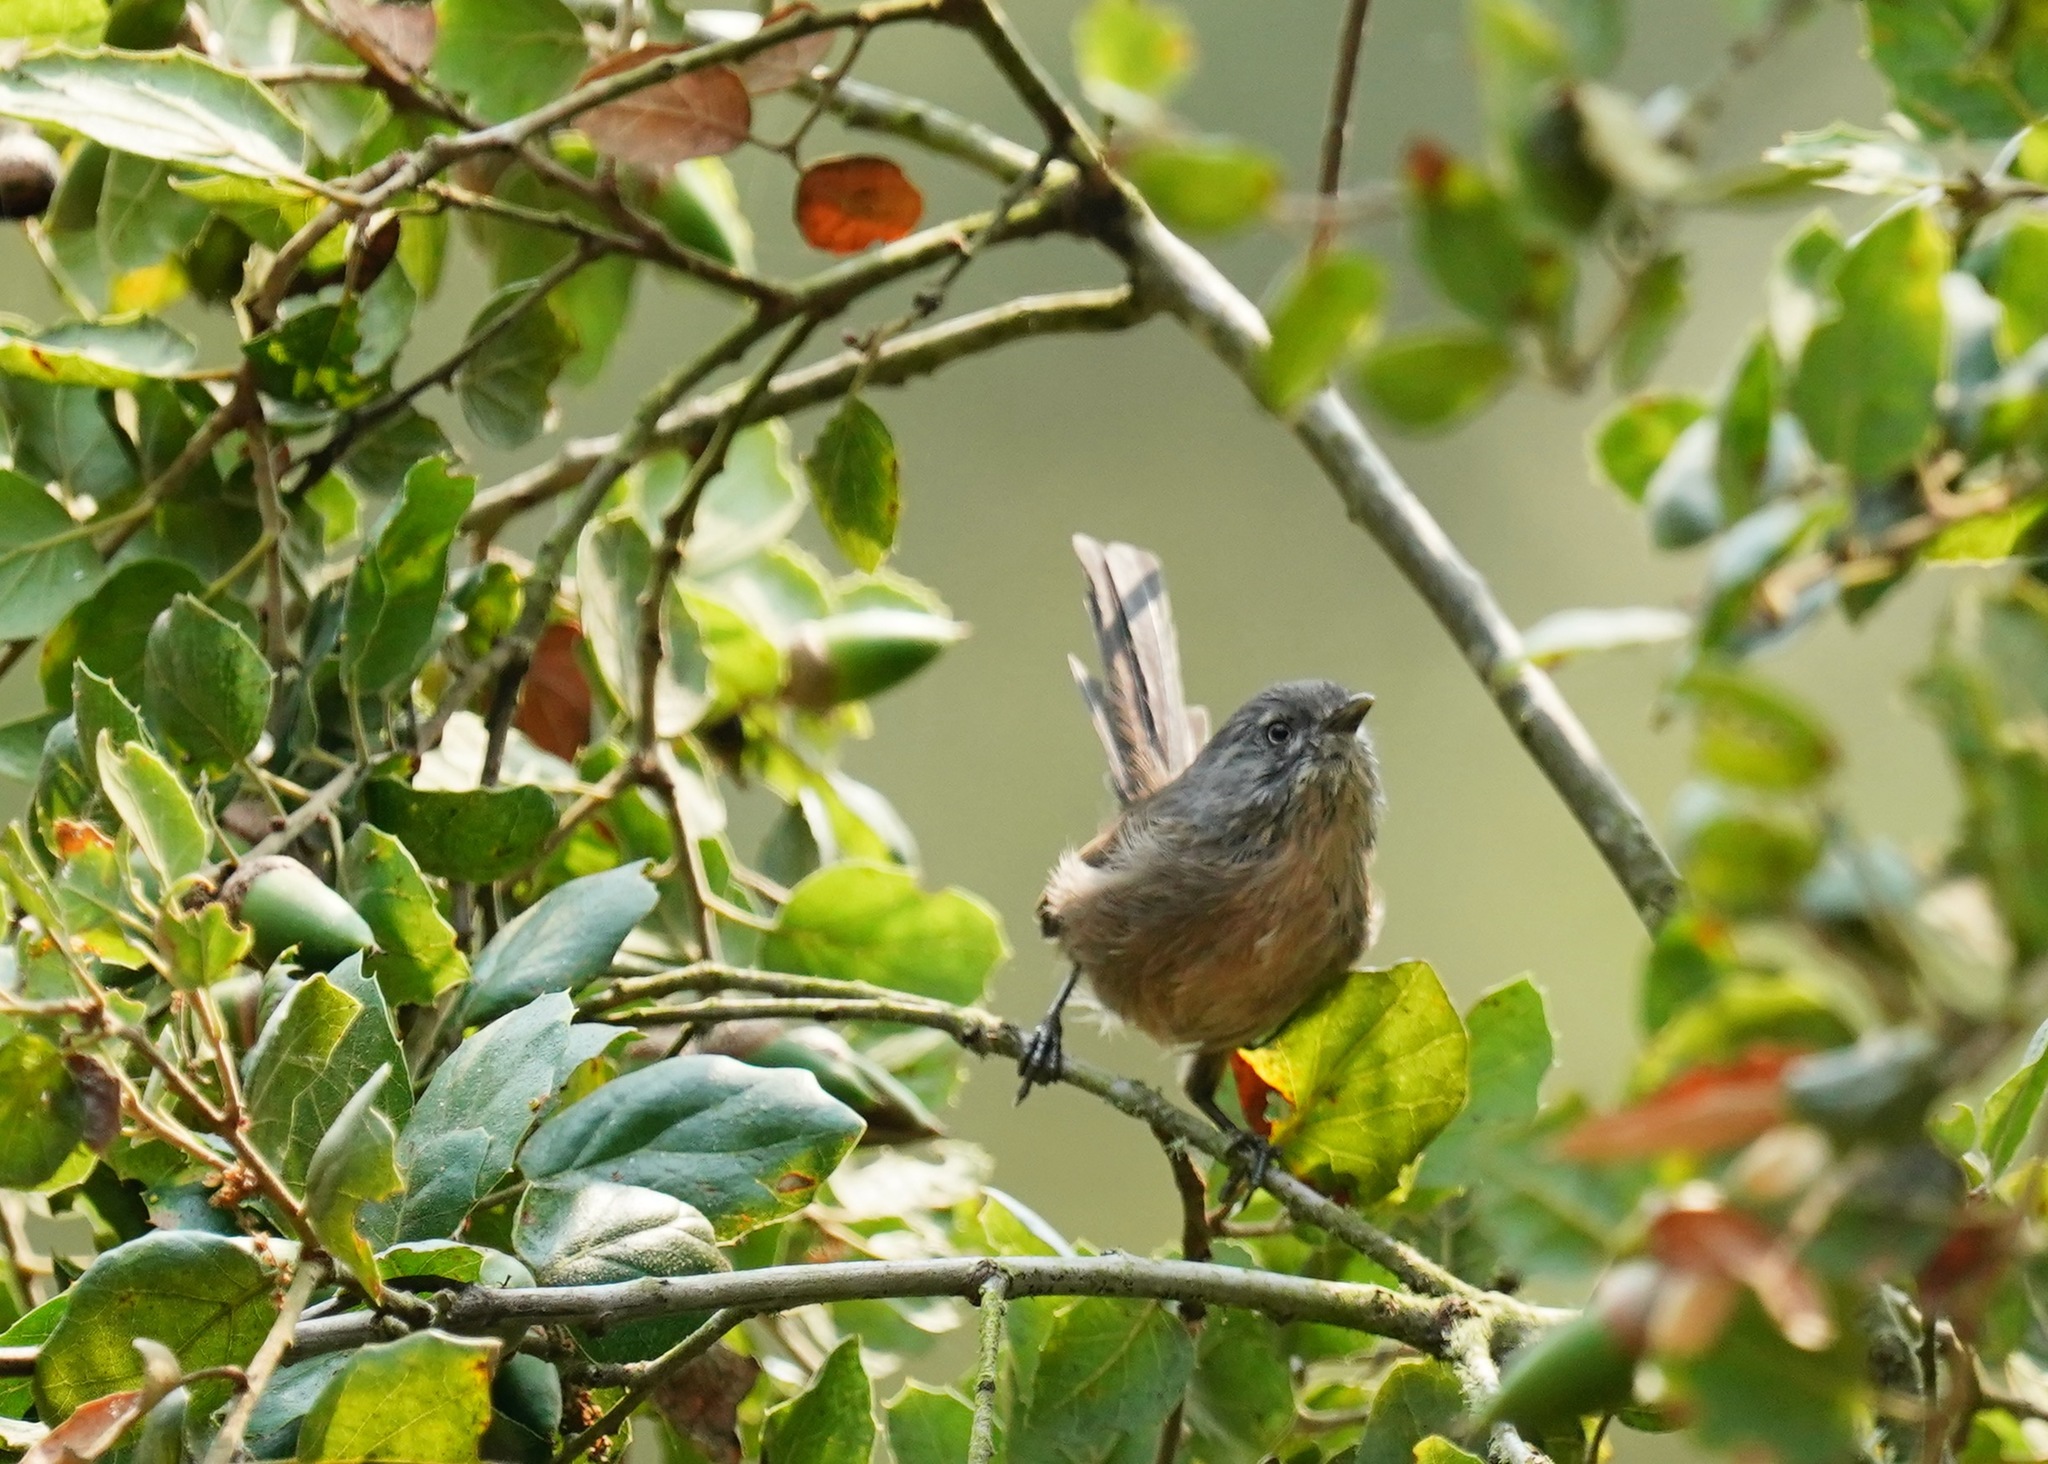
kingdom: Animalia
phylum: Chordata
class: Aves
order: Passeriformes
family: Sylviidae
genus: Chamaea
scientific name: Chamaea fasciata
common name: Wrentit
